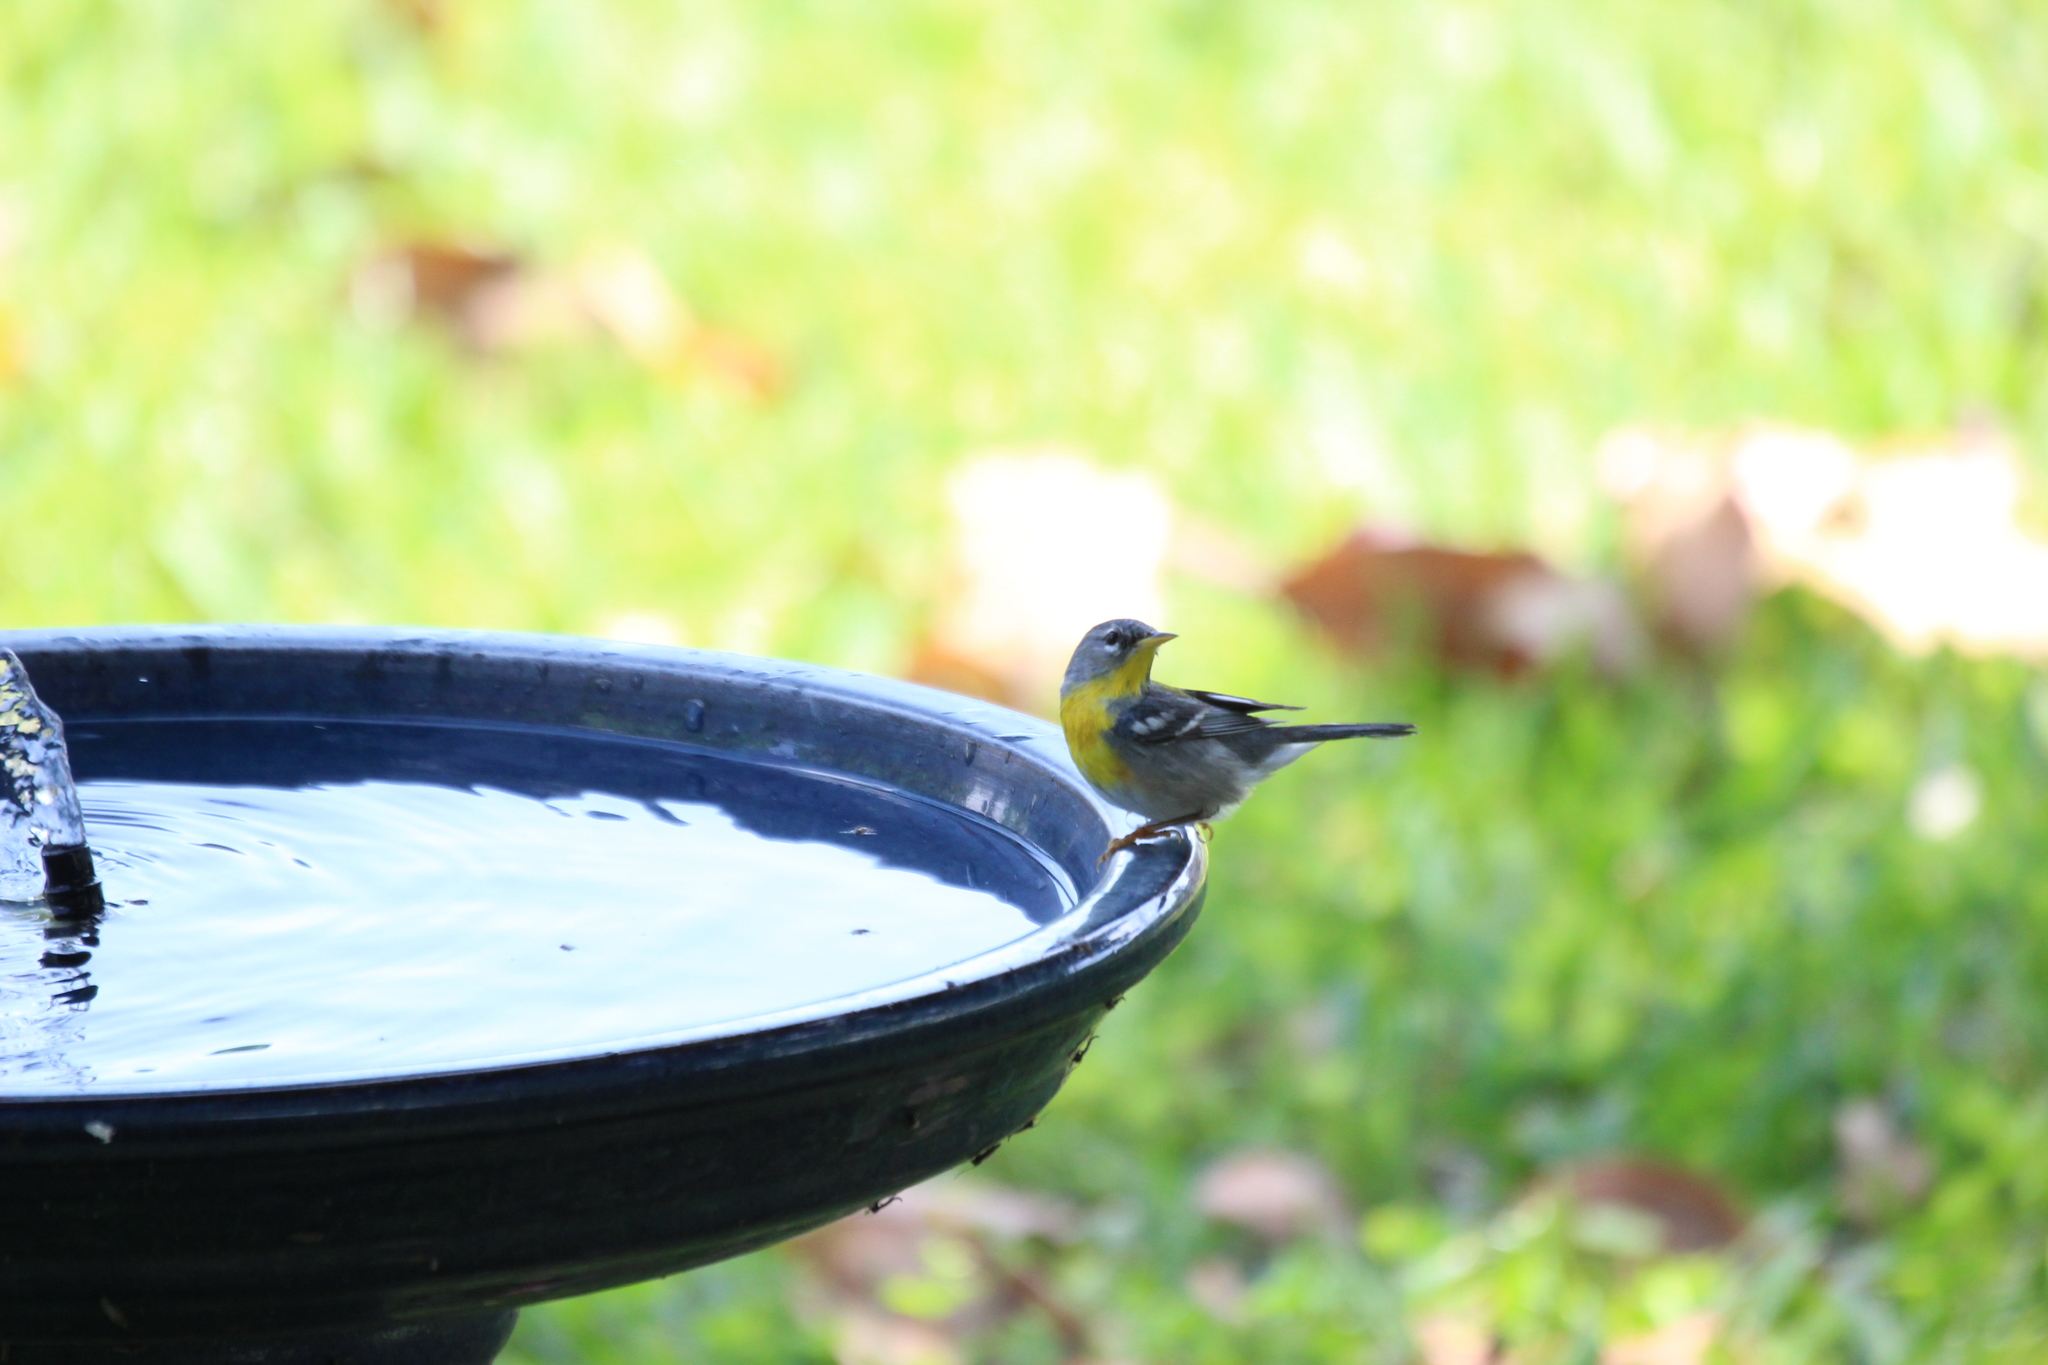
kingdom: Animalia
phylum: Chordata
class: Aves
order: Passeriformes
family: Parulidae
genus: Setophaga
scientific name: Setophaga americana
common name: Northern parula
